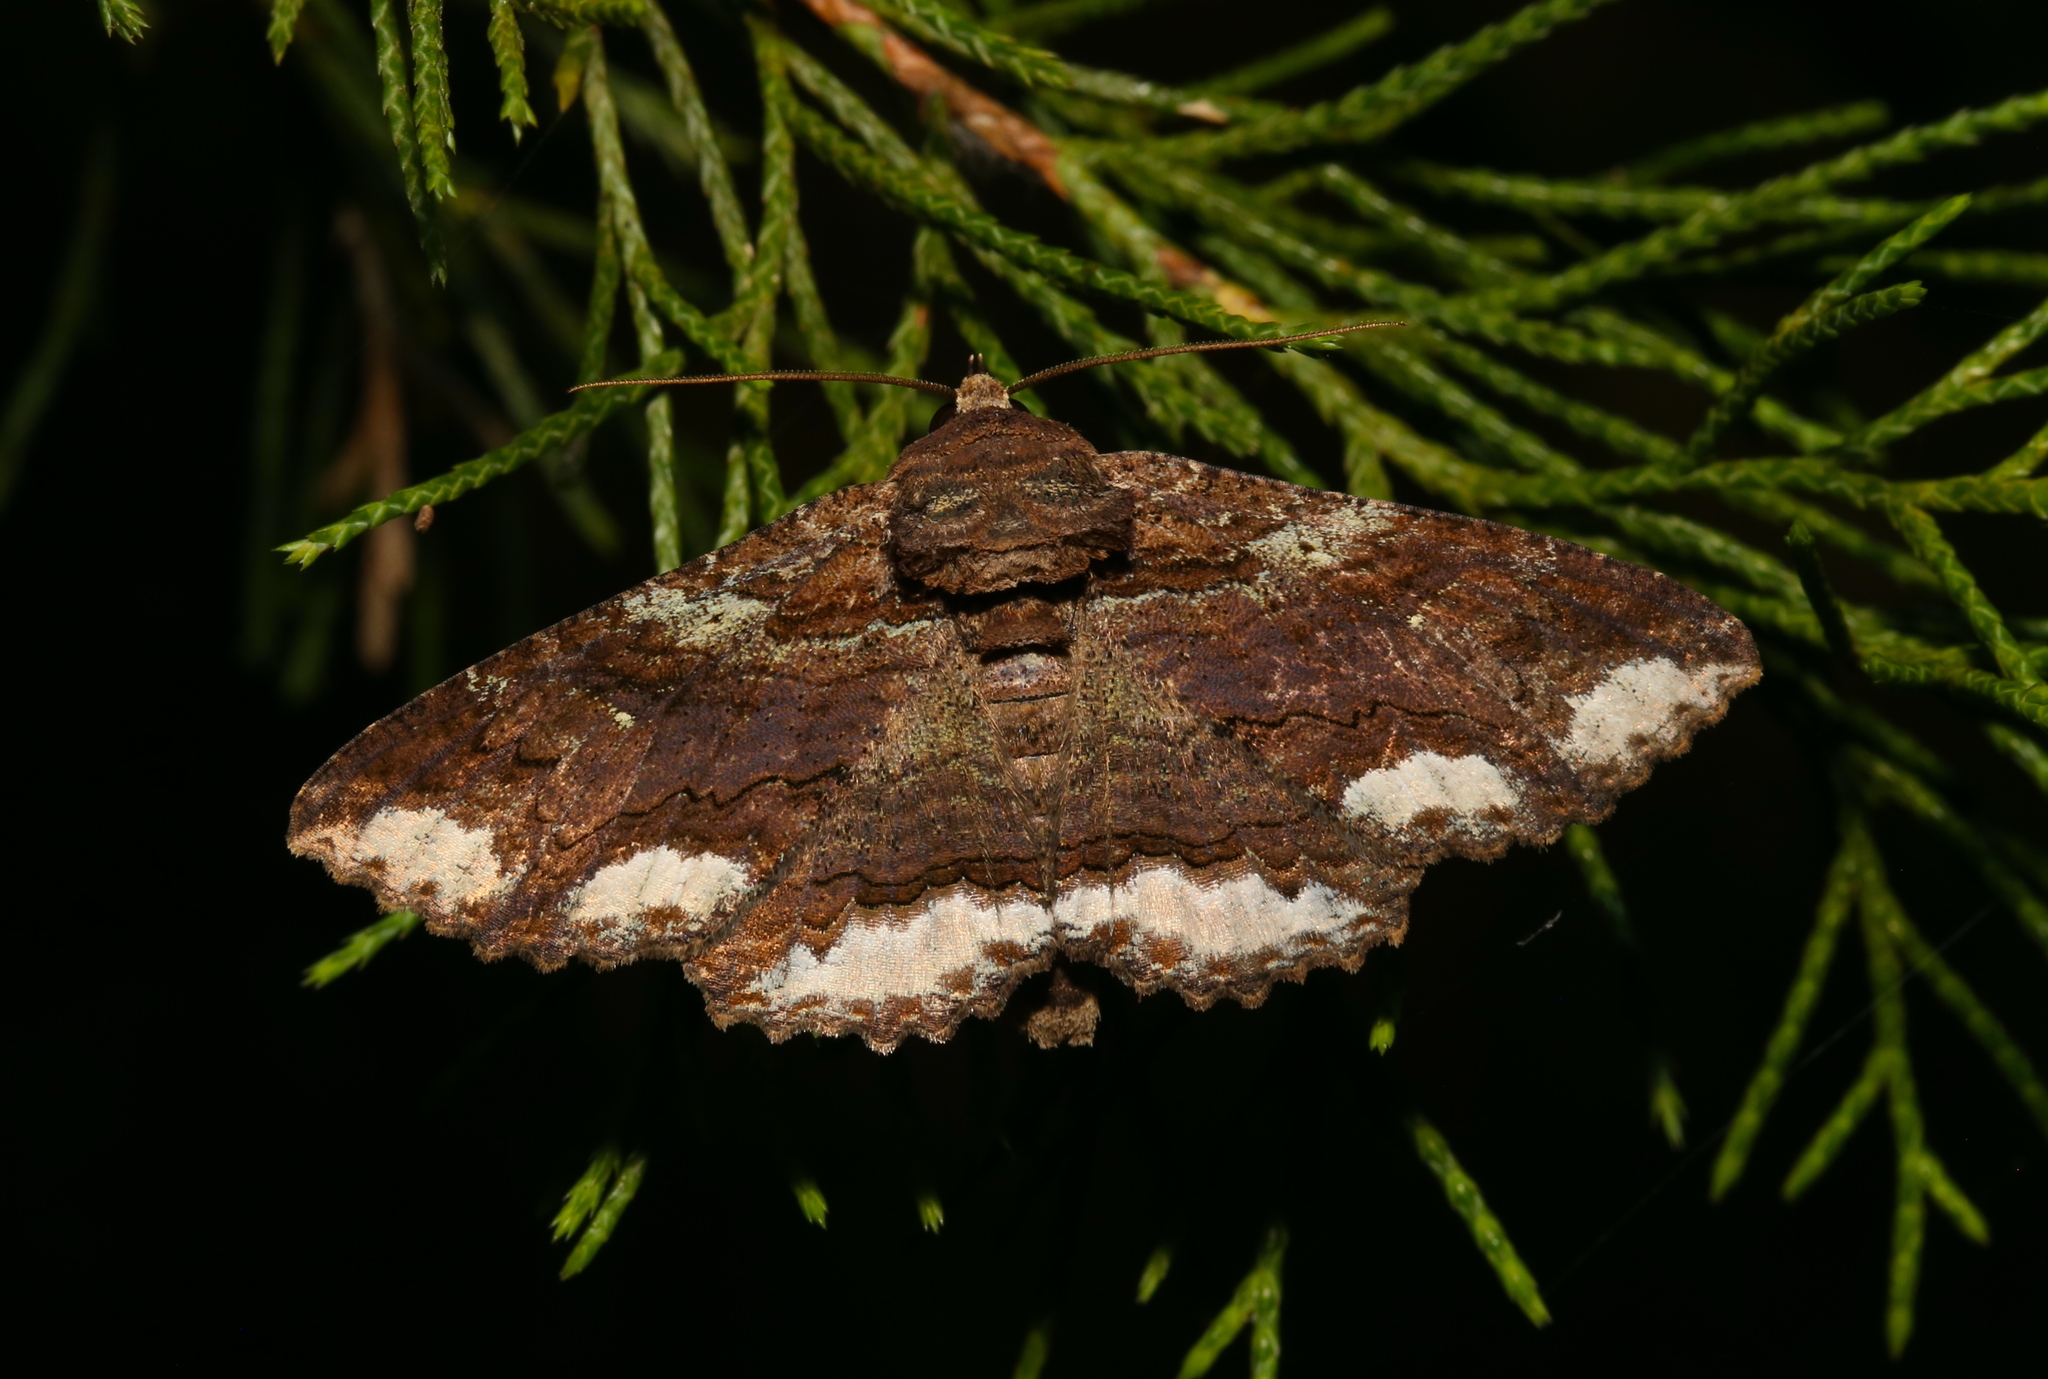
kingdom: Animalia
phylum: Arthropoda
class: Insecta
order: Lepidoptera
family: Erebidae
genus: Zale
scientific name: Zale lunata
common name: Lunate zale moth
